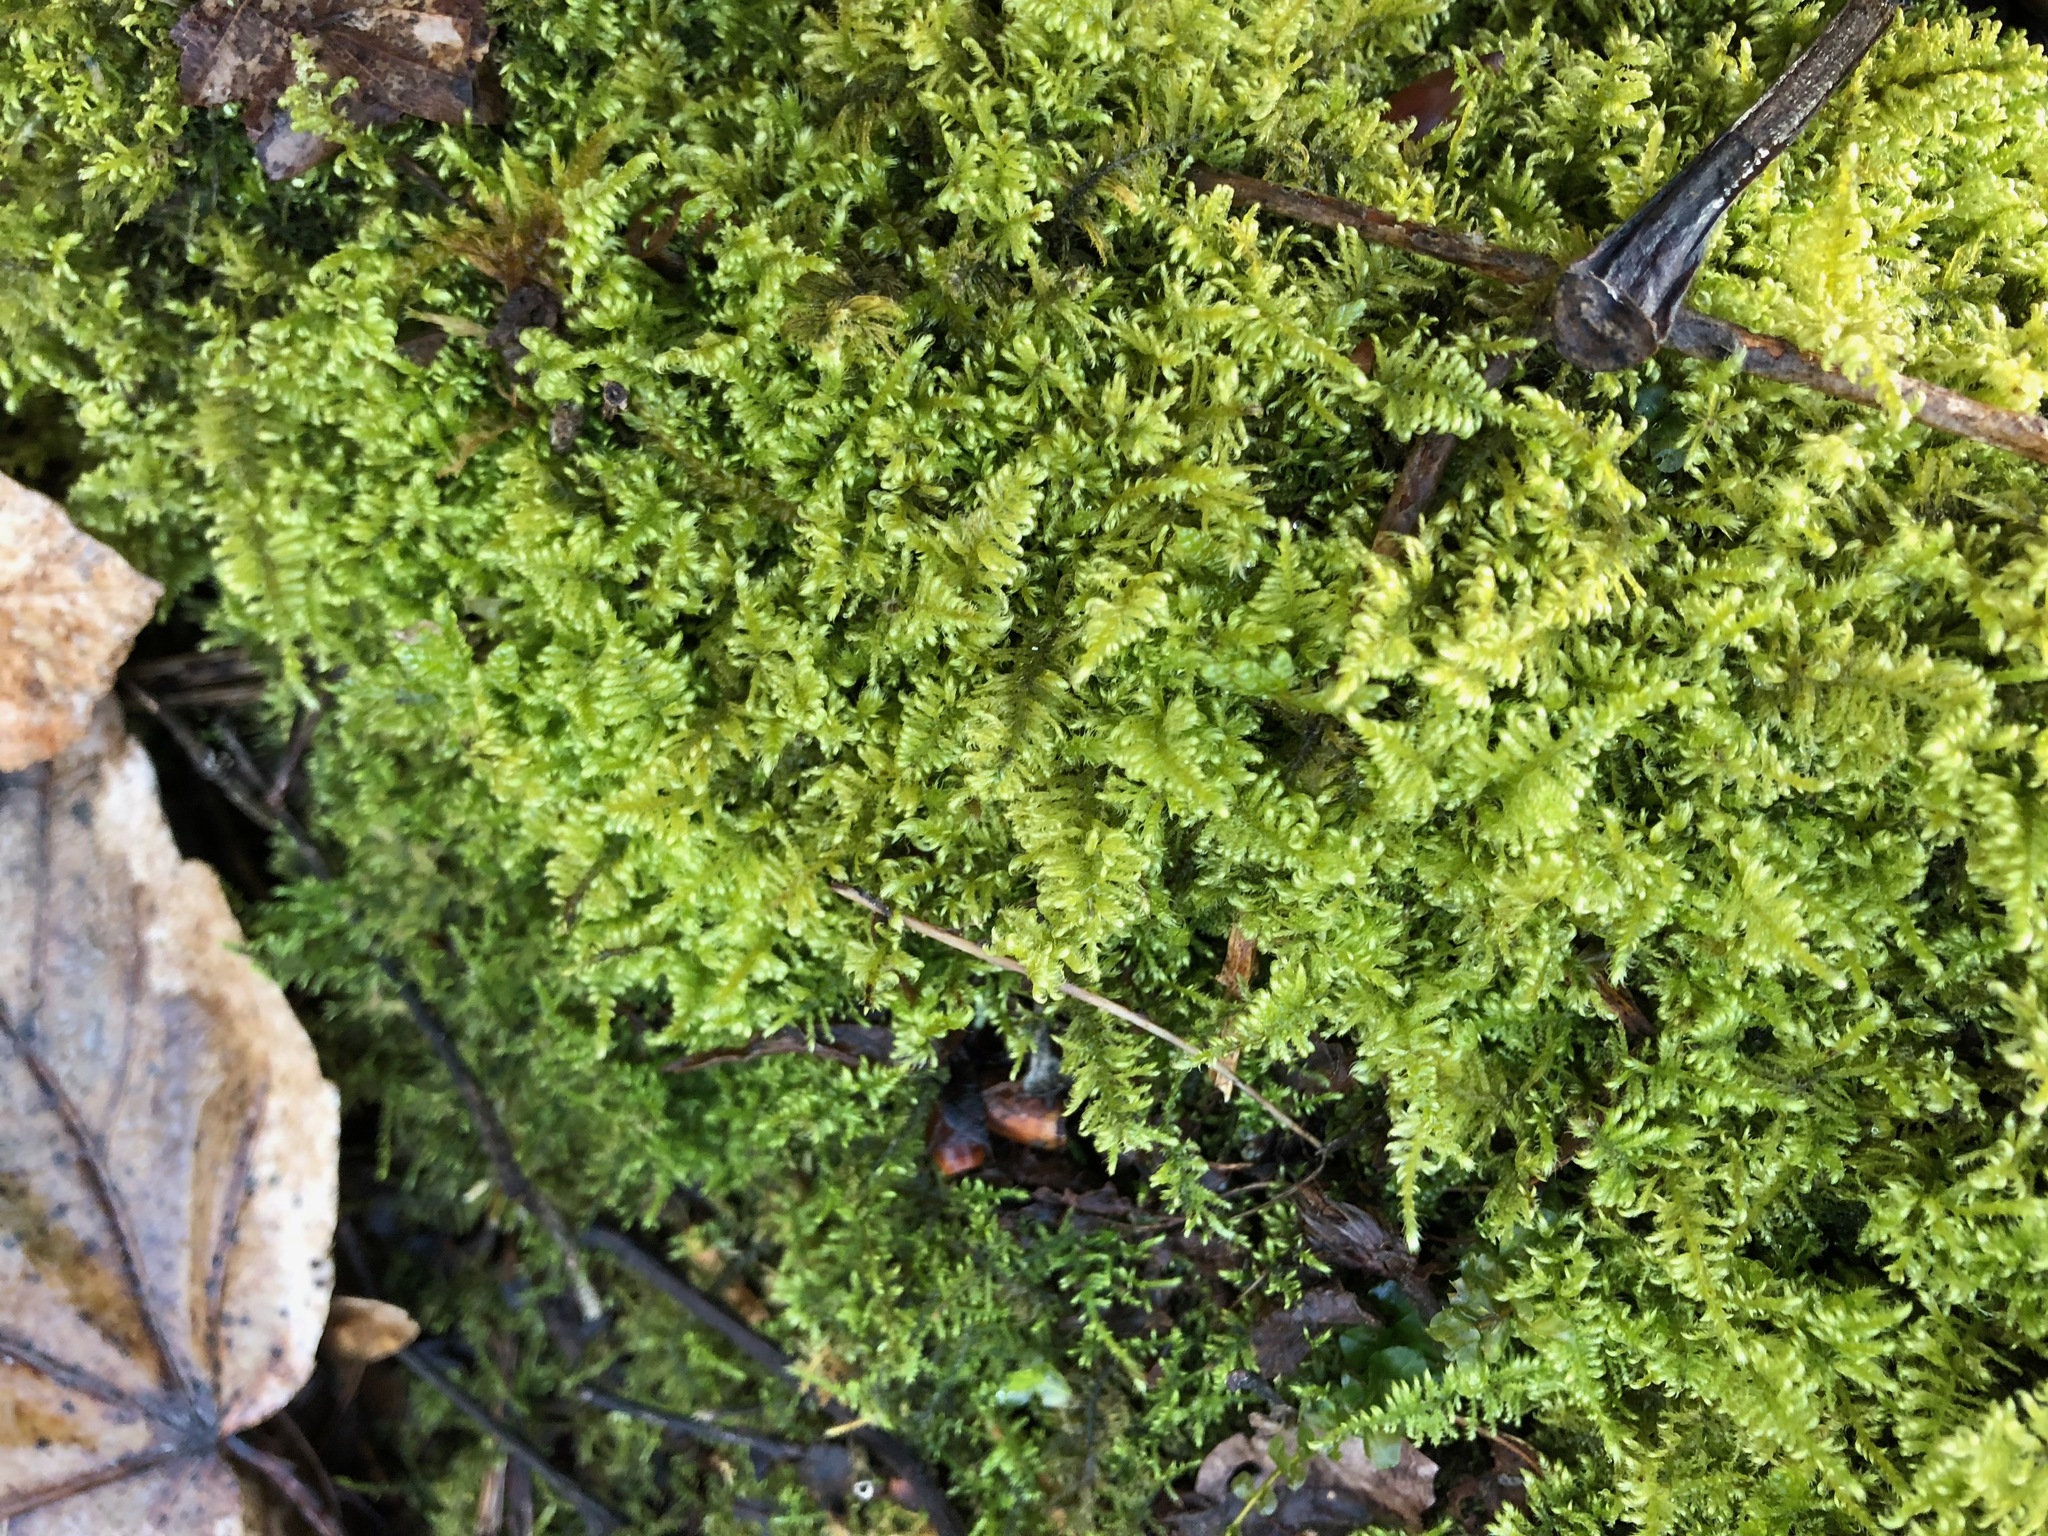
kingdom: Plantae
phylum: Bryophyta
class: Bryopsida
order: Hypnales
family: Myuriaceae
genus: Ctenidium
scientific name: Ctenidium molluscum
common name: Chalk comb-moss
